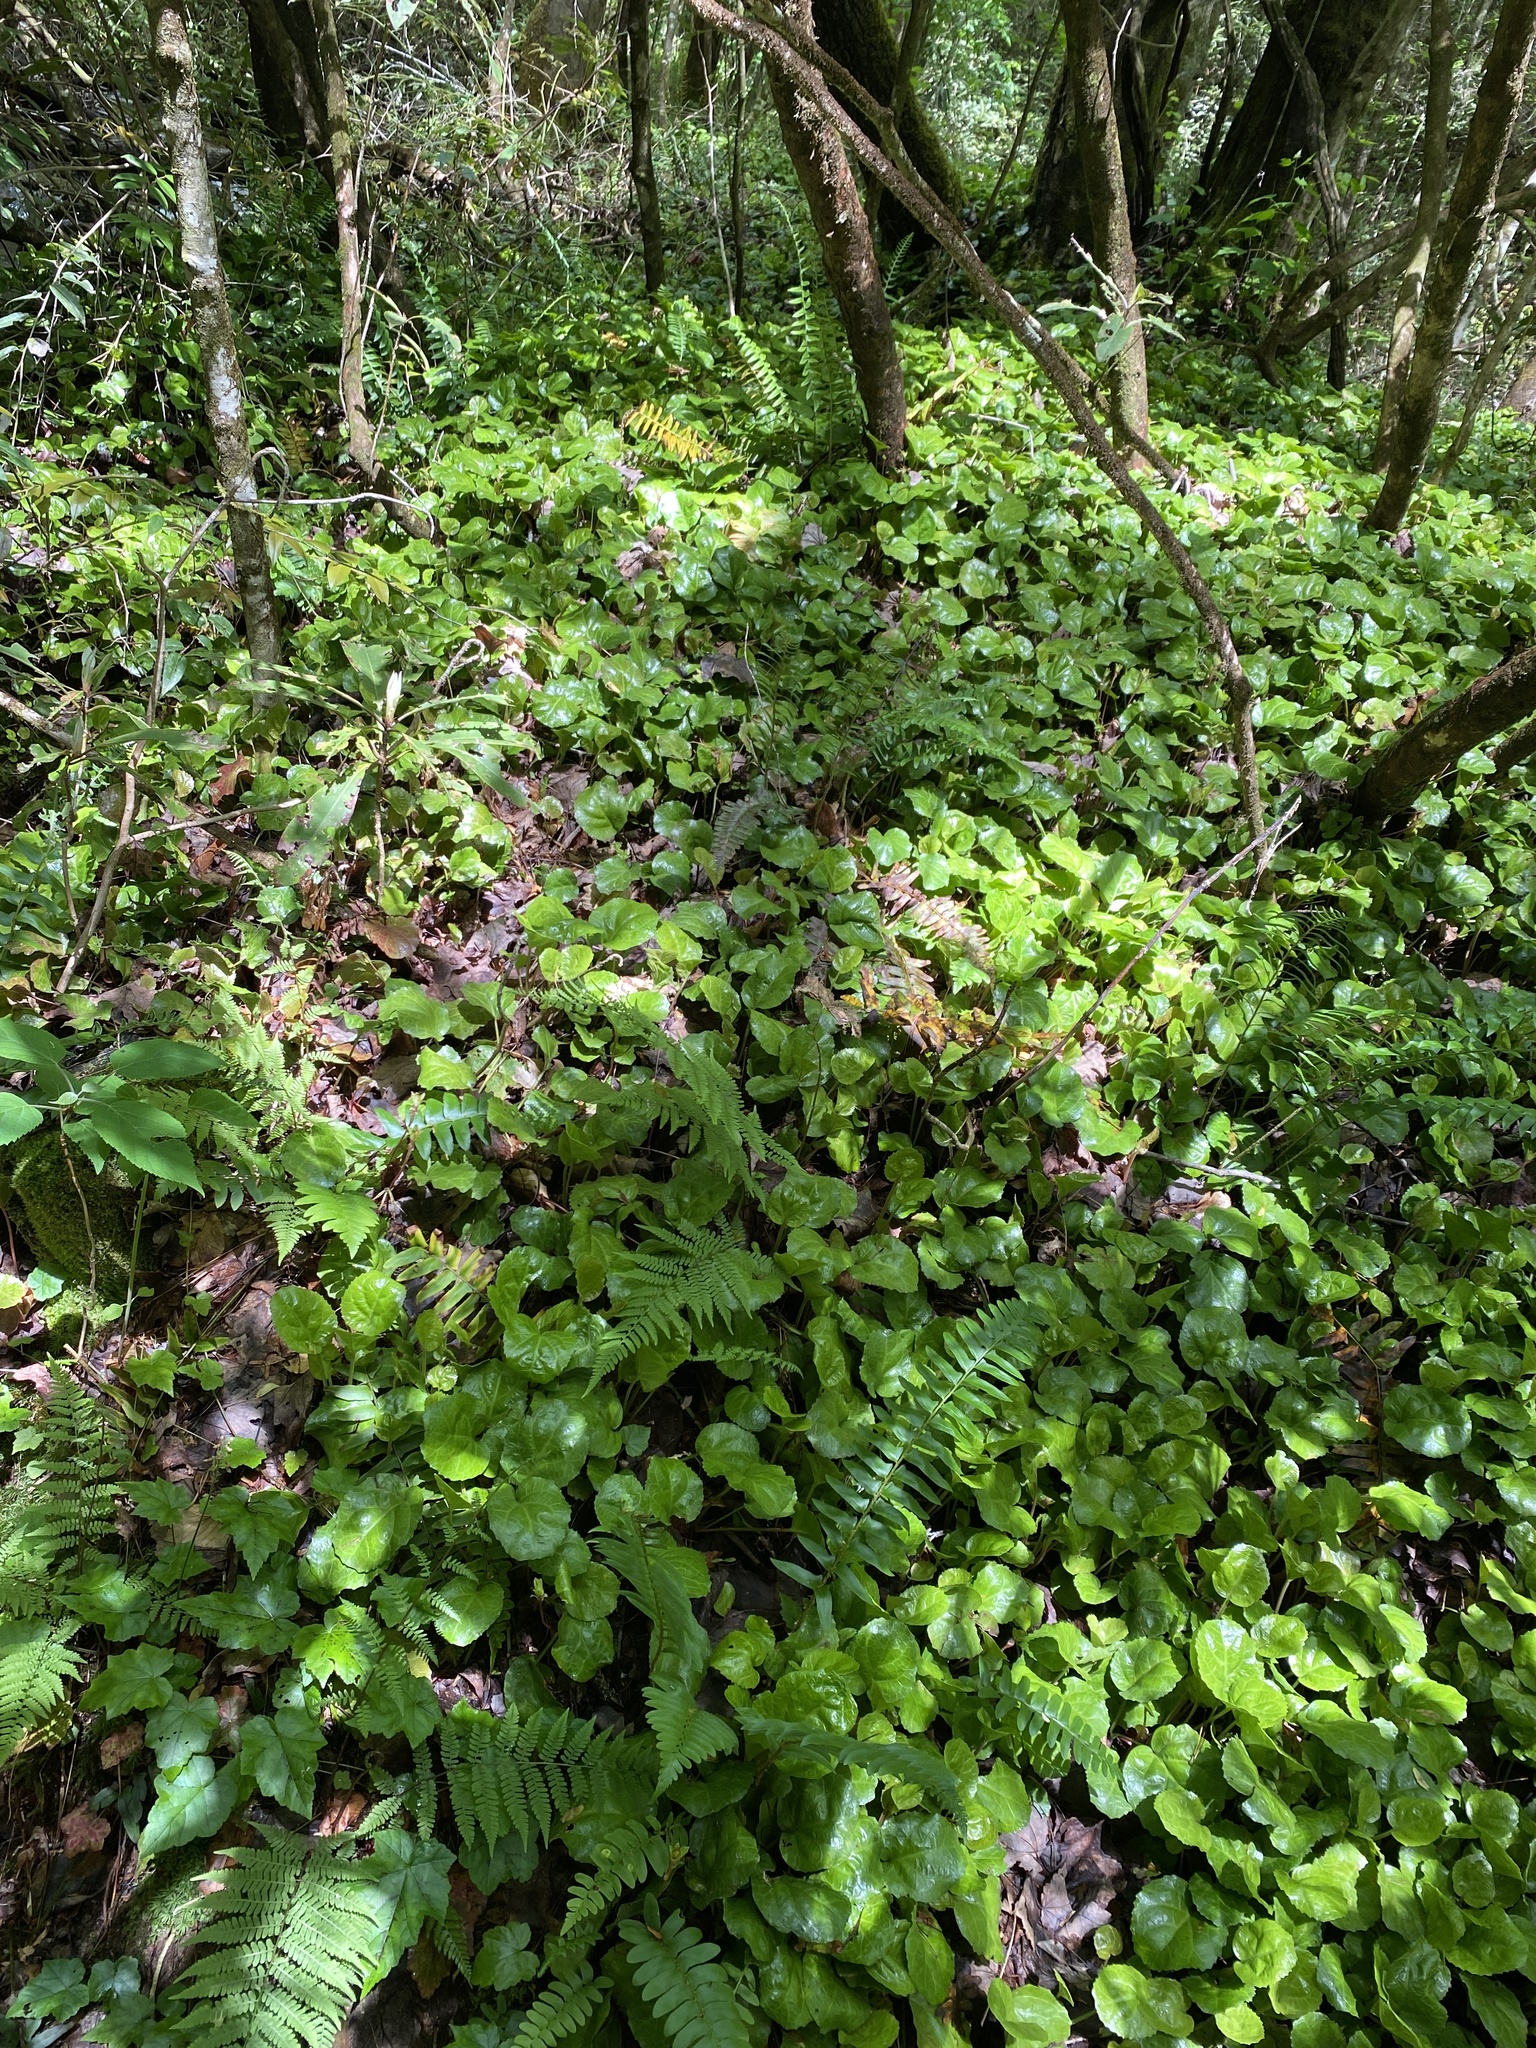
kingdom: Plantae
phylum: Tracheophyta
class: Magnoliopsida
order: Ericales
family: Diapensiaceae
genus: Shortia
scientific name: Shortia galacifolia
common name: Shortia
